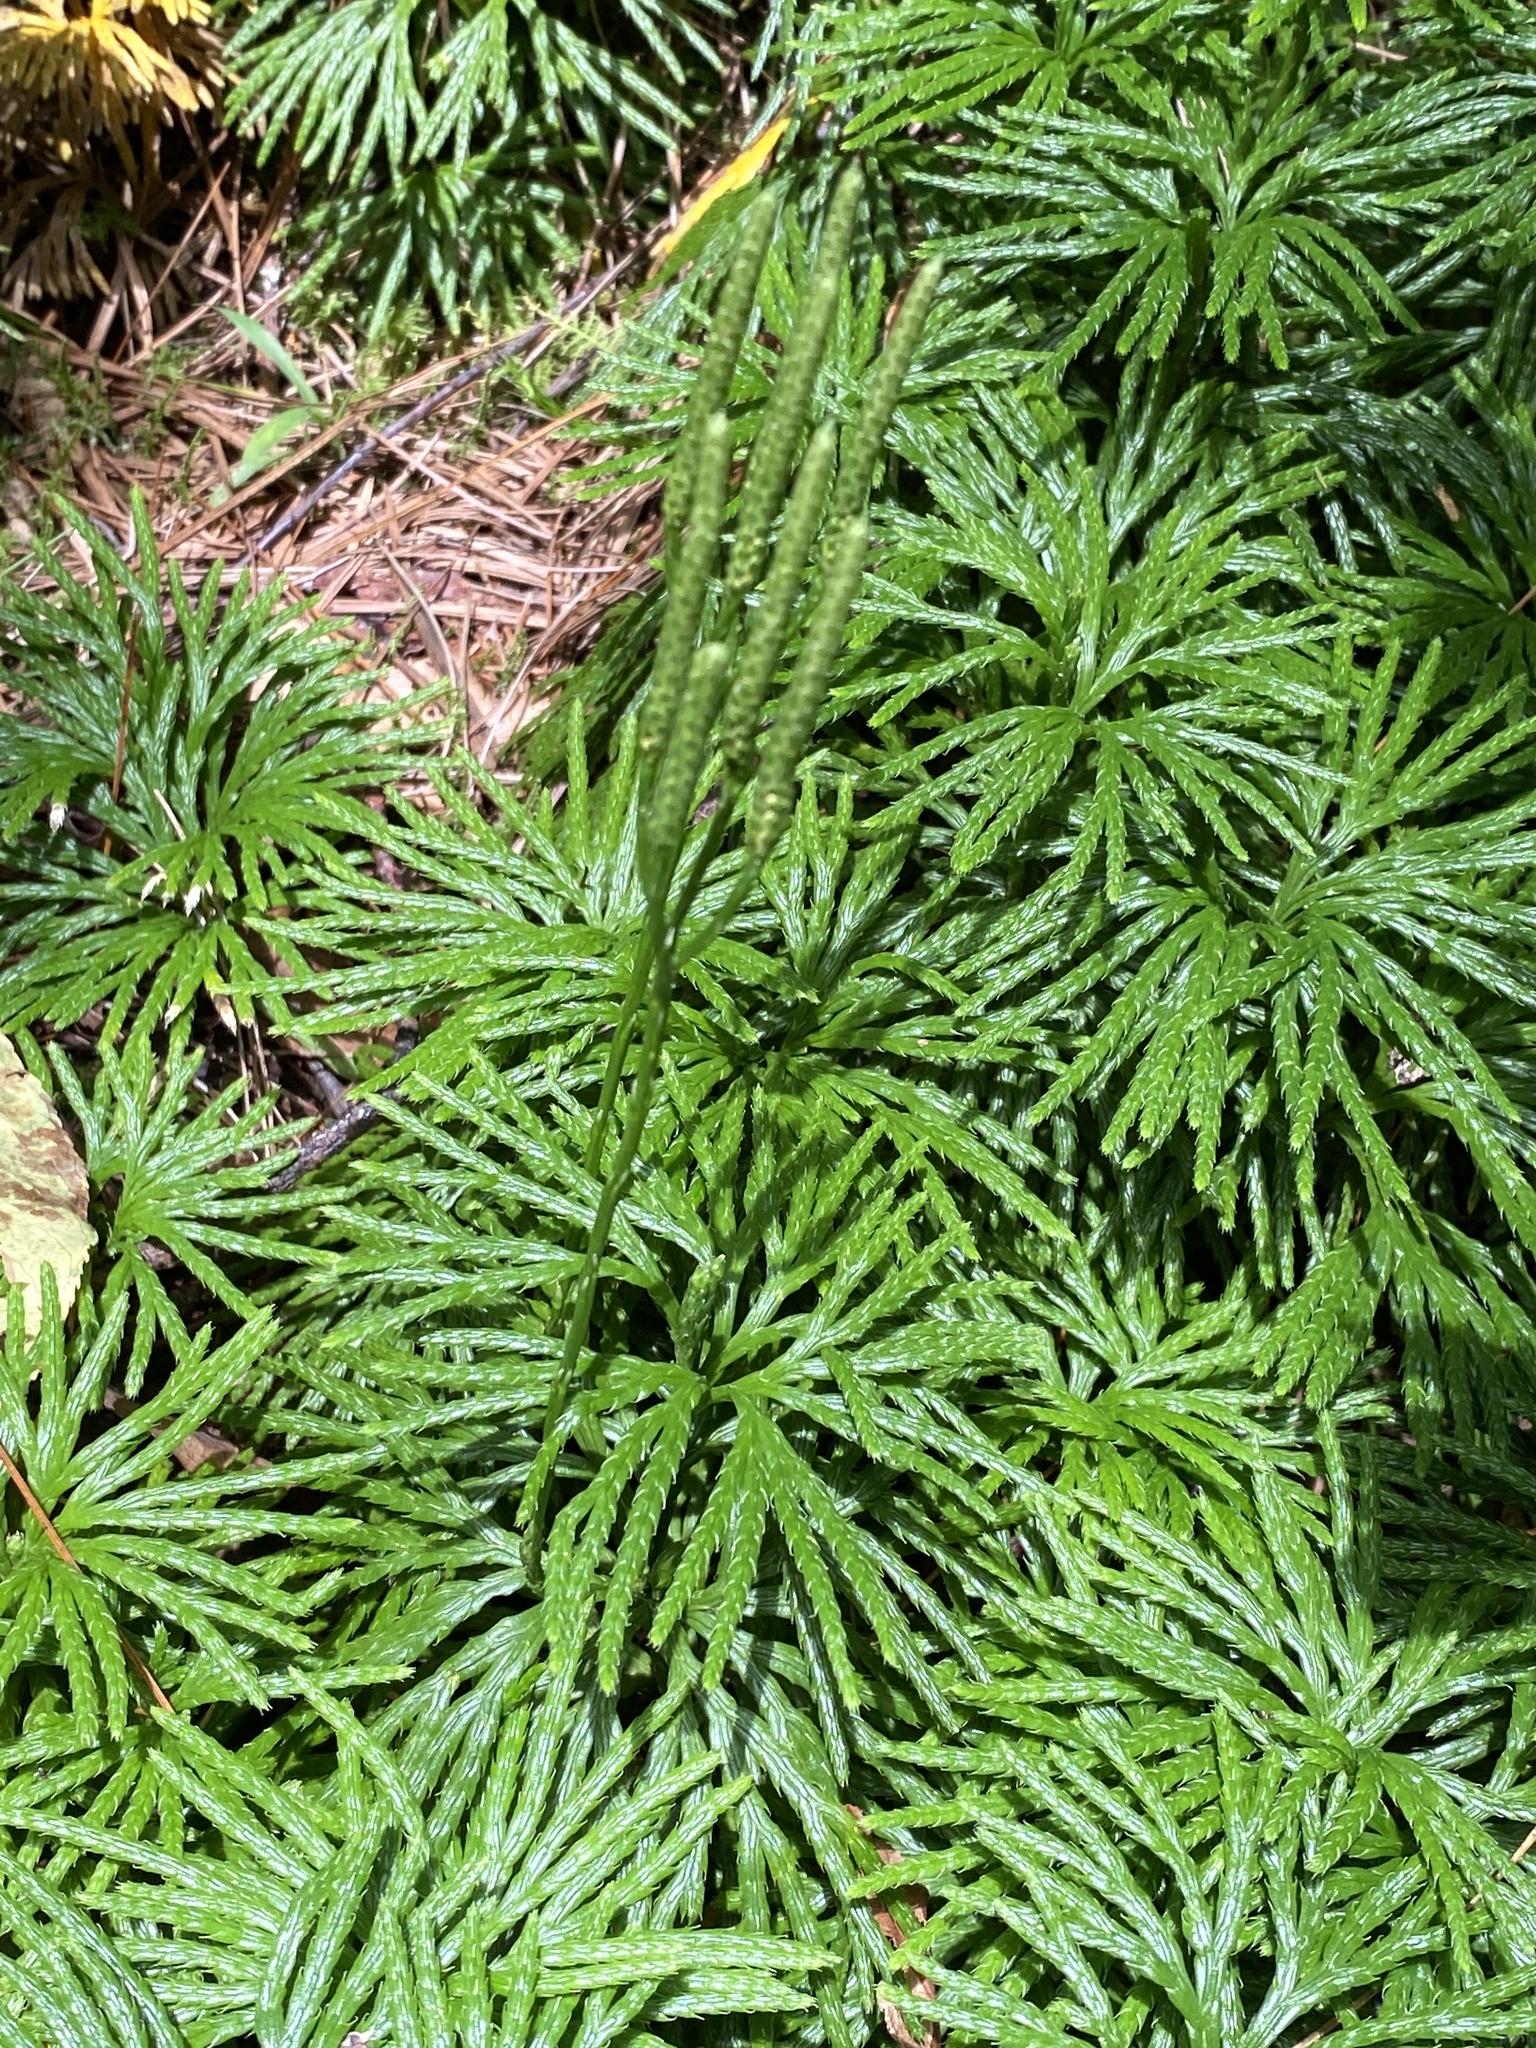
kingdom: Plantae
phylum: Tracheophyta
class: Lycopodiopsida
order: Lycopodiales
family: Lycopodiaceae
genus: Diphasiastrum
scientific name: Diphasiastrum digitatum
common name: Southern running-pine
